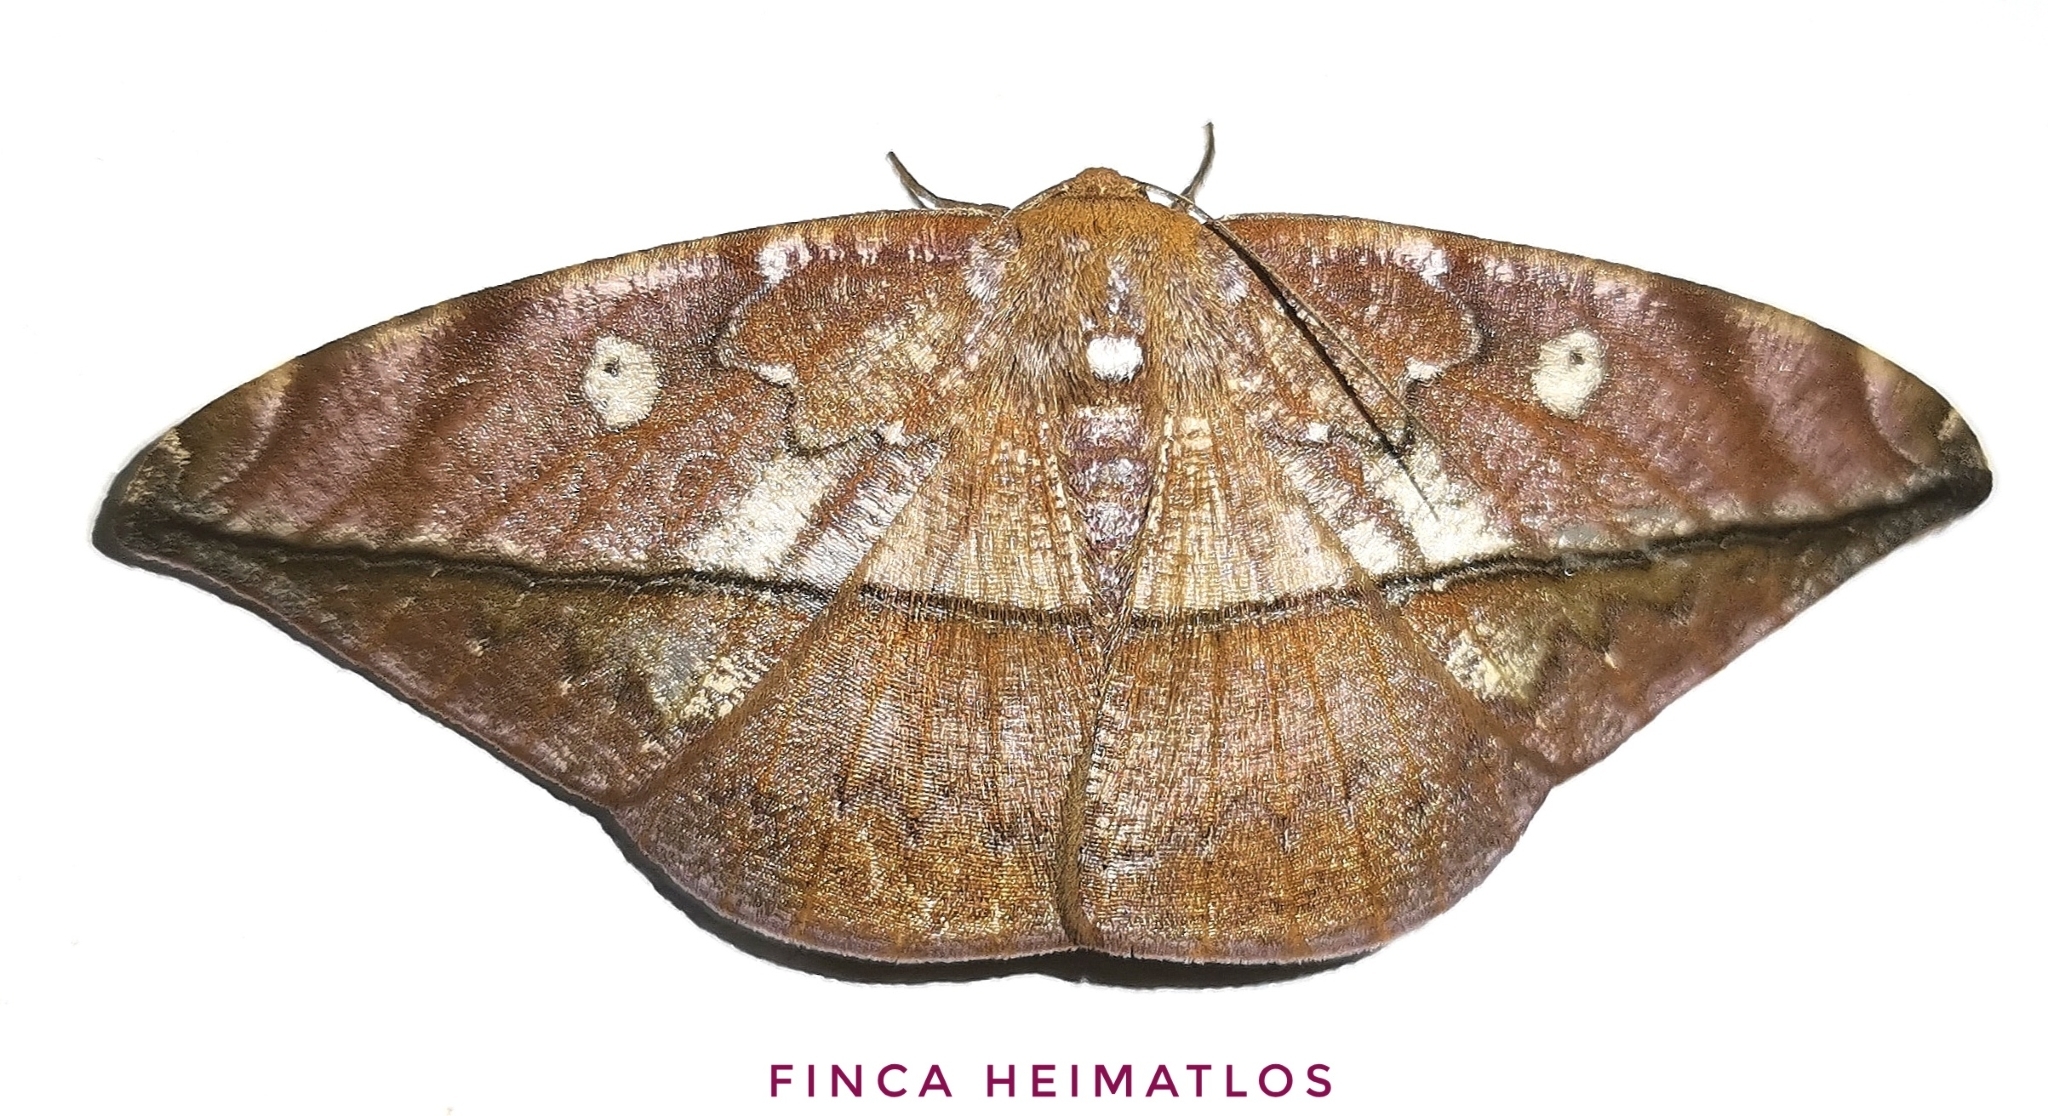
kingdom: Animalia
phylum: Arthropoda
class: Insecta
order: Lepidoptera
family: Geometridae
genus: Oxydia
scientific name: Oxydia translinquens
